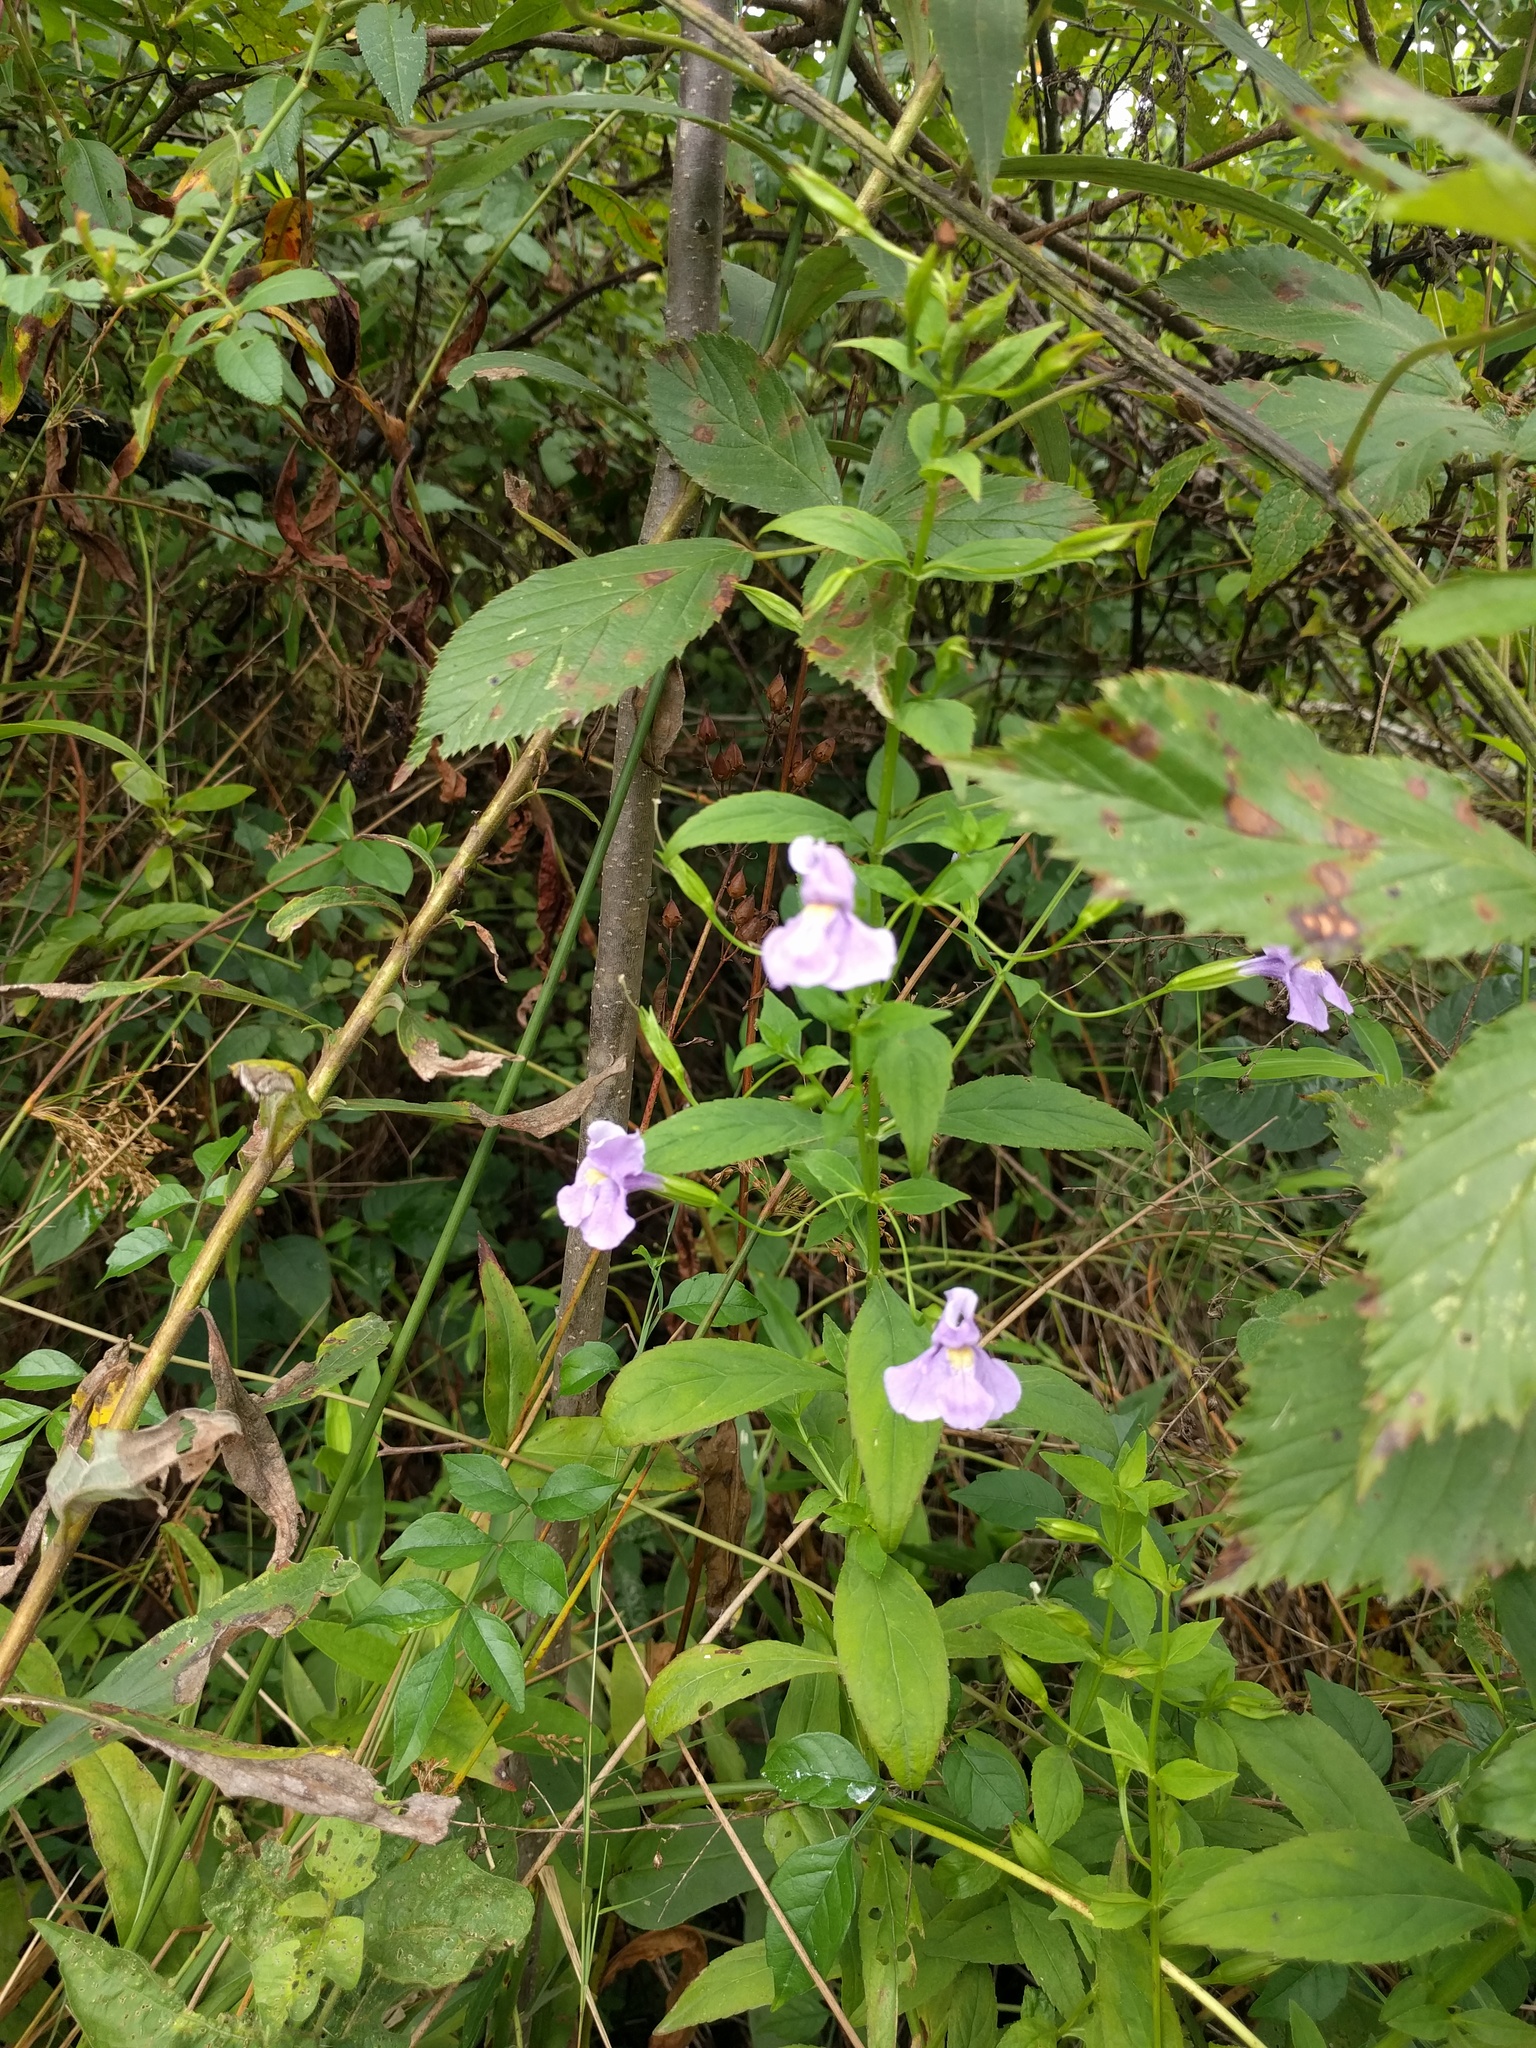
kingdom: Plantae
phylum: Tracheophyta
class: Magnoliopsida
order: Lamiales
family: Phrymaceae
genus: Mimulus
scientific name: Mimulus ringens
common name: Allegheny monkeyflower
